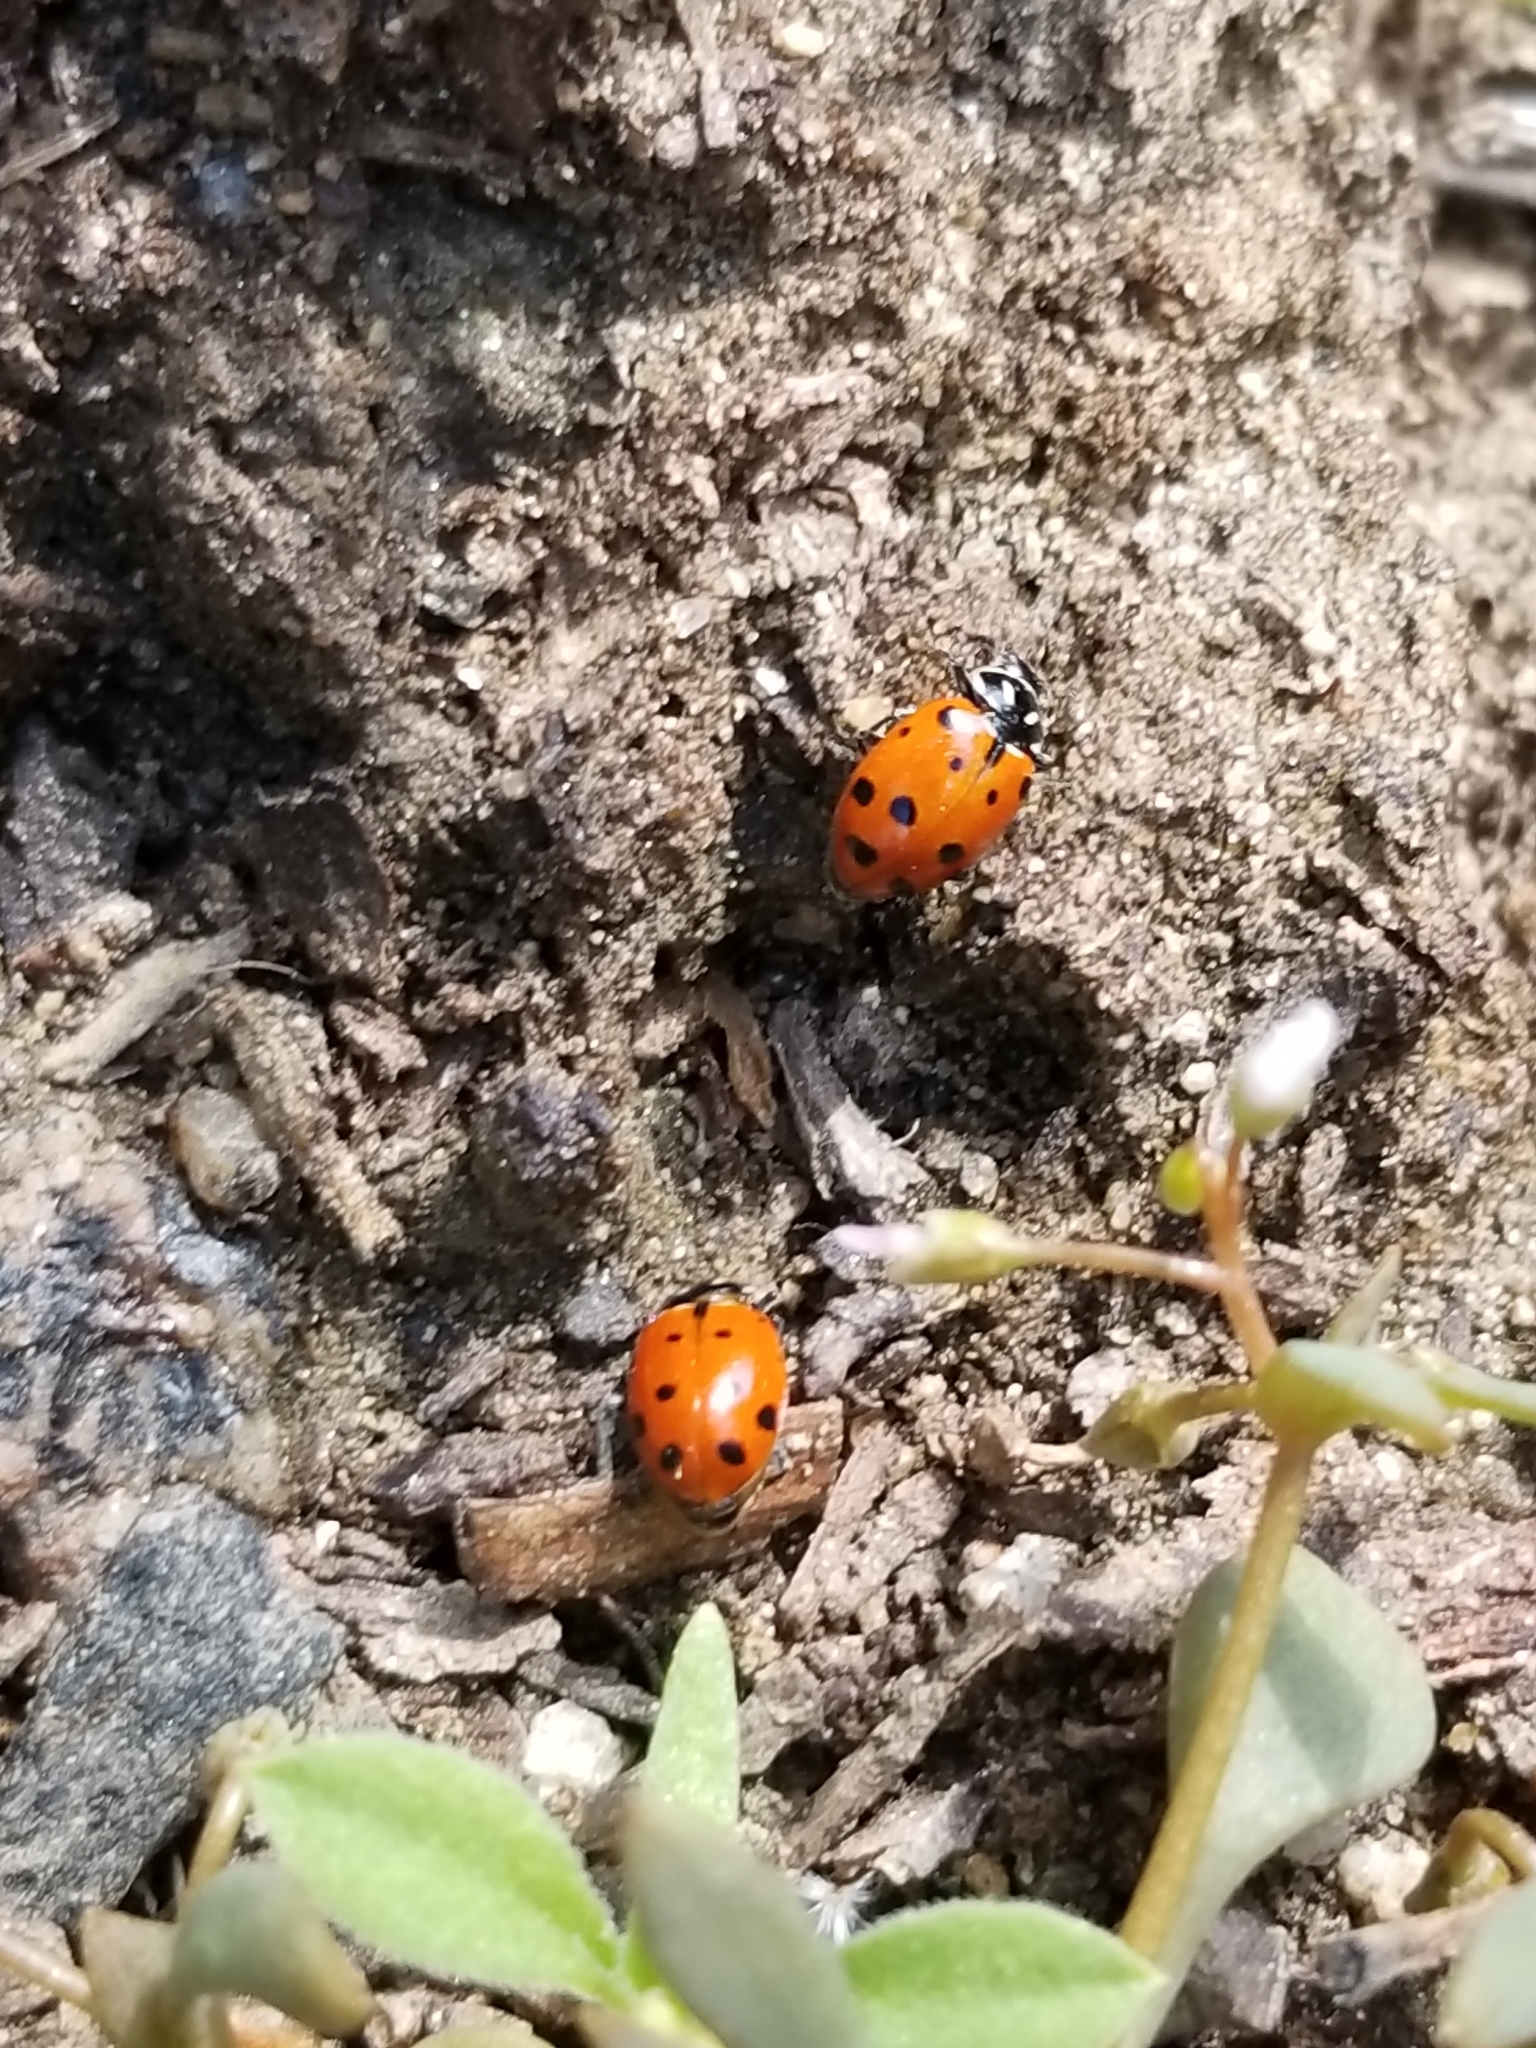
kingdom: Animalia
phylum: Arthropoda
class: Insecta
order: Coleoptera
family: Coccinellidae
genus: Hippodamia
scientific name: Hippodamia convergens
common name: Convergent lady beetle
